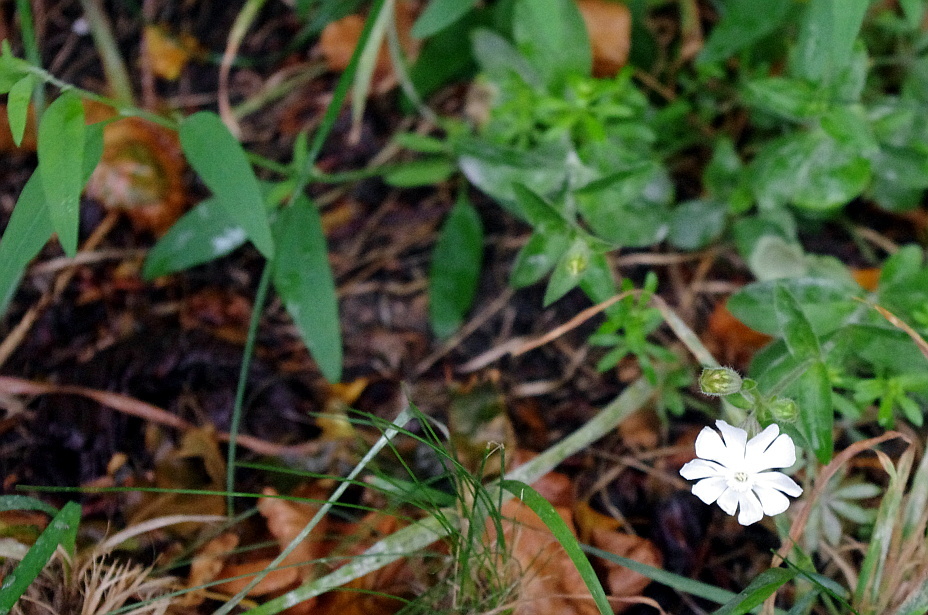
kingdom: Plantae
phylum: Tracheophyta
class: Magnoliopsida
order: Caryophyllales
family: Caryophyllaceae
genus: Silene
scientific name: Silene latifolia
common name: White campion
